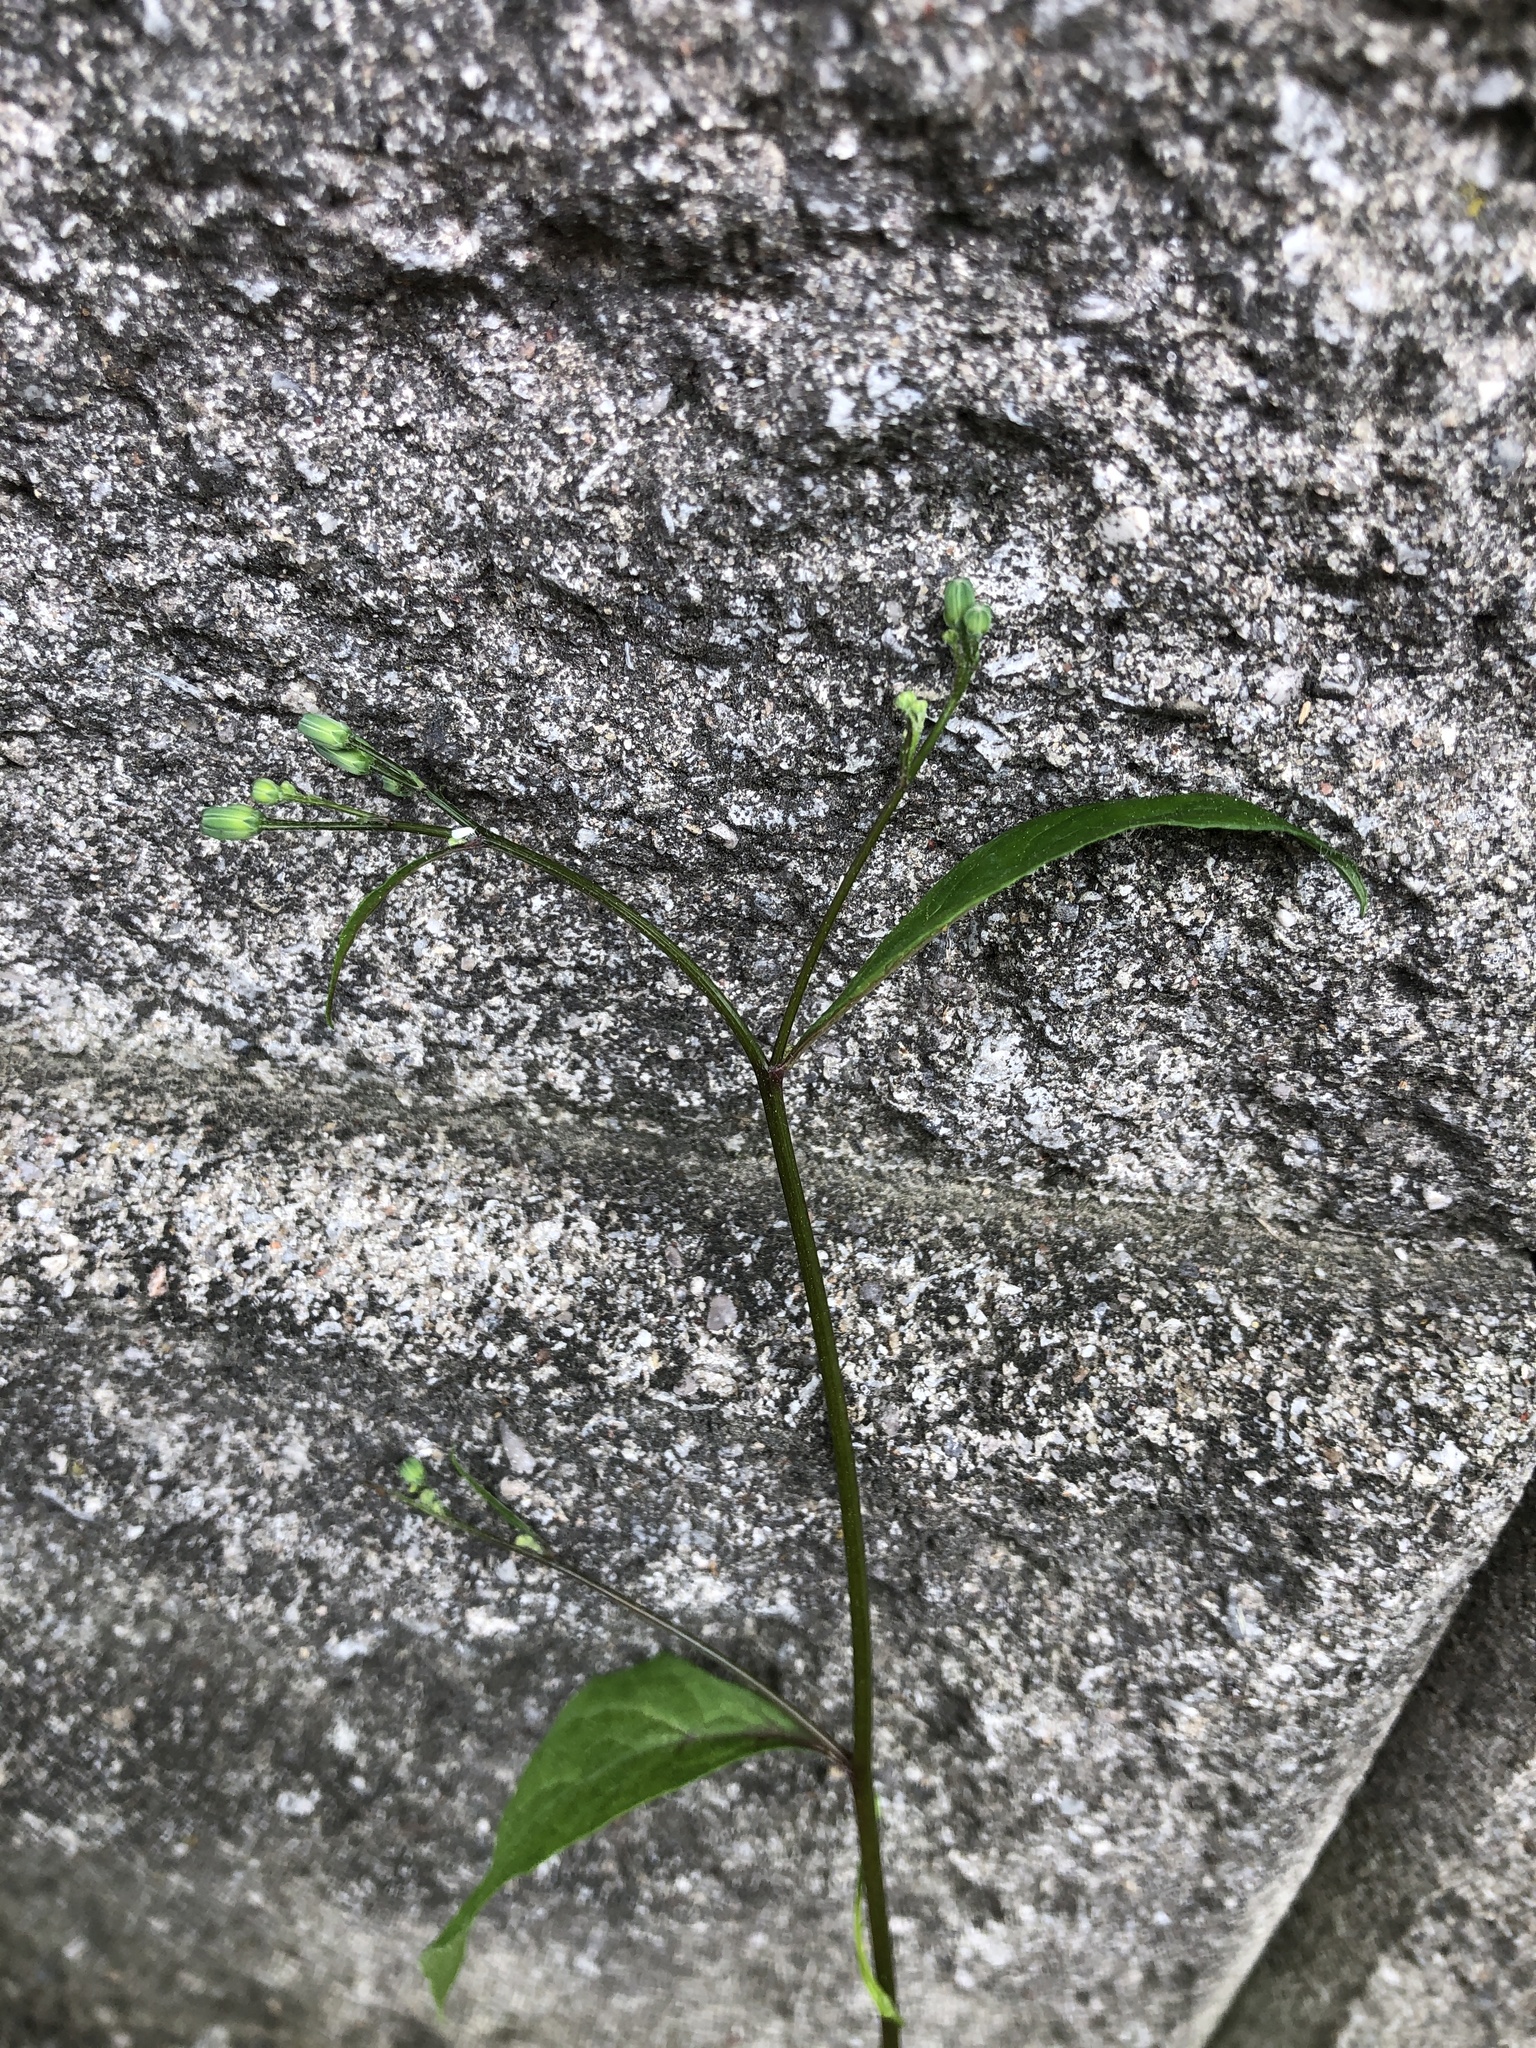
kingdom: Plantae
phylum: Tracheophyta
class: Magnoliopsida
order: Asterales
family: Asteraceae
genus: Lapsana
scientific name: Lapsana communis
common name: Nipplewort
